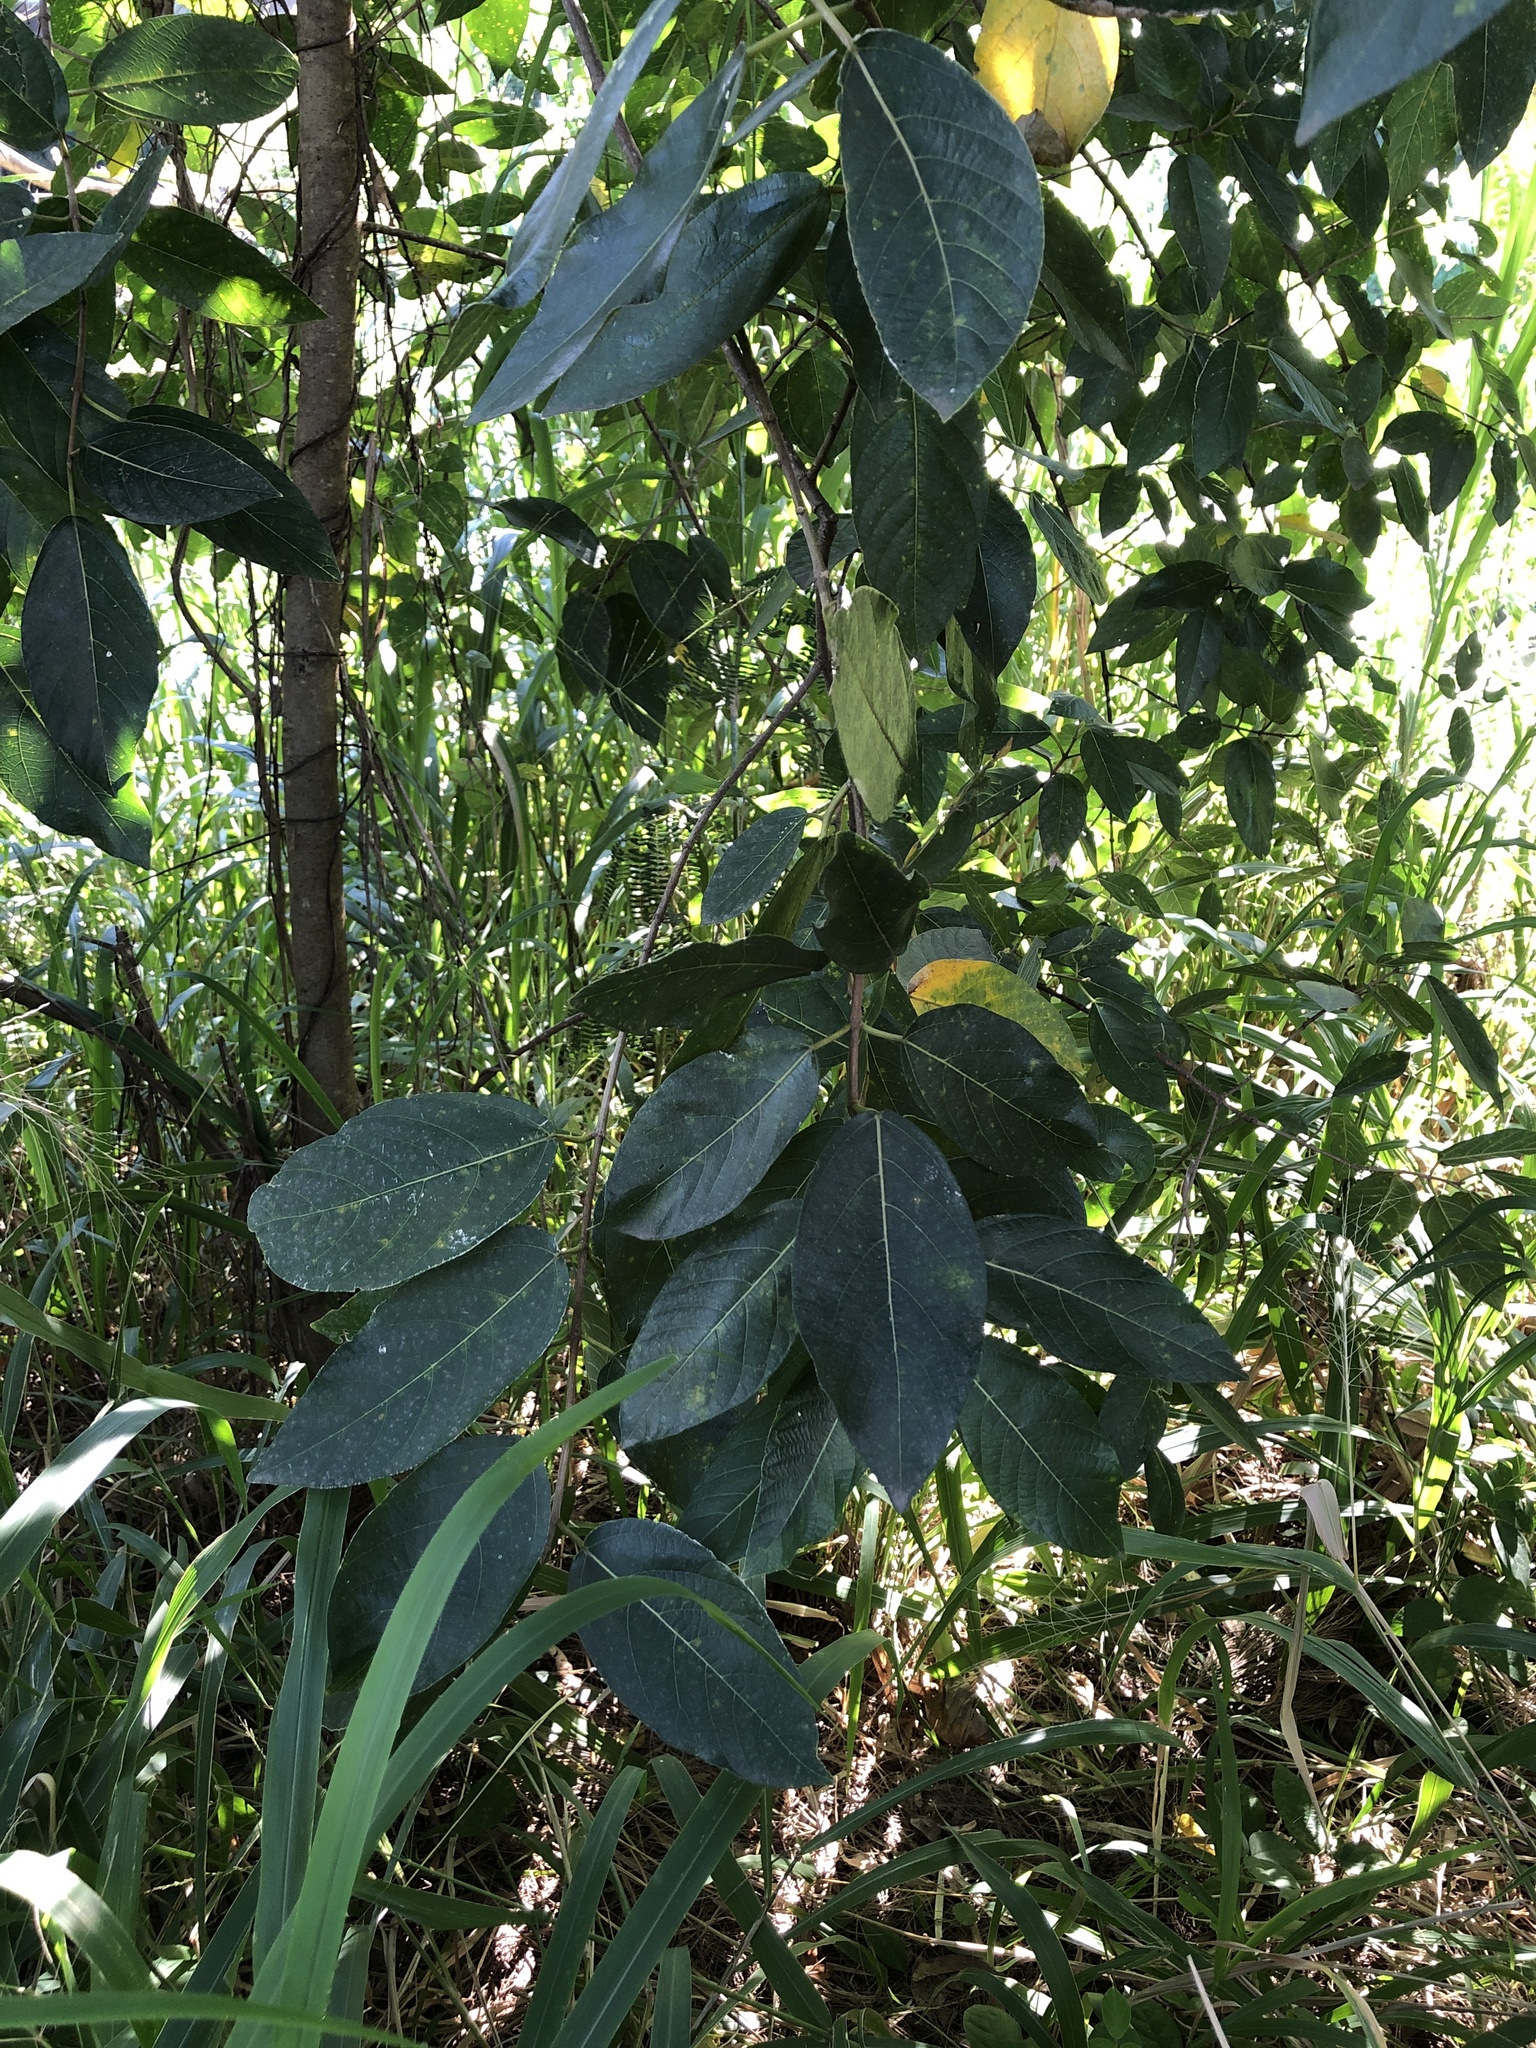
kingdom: Plantae
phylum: Tracheophyta
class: Magnoliopsida
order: Rosales
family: Moraceae
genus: Ficus
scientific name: Ficus opposita
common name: Figwood
